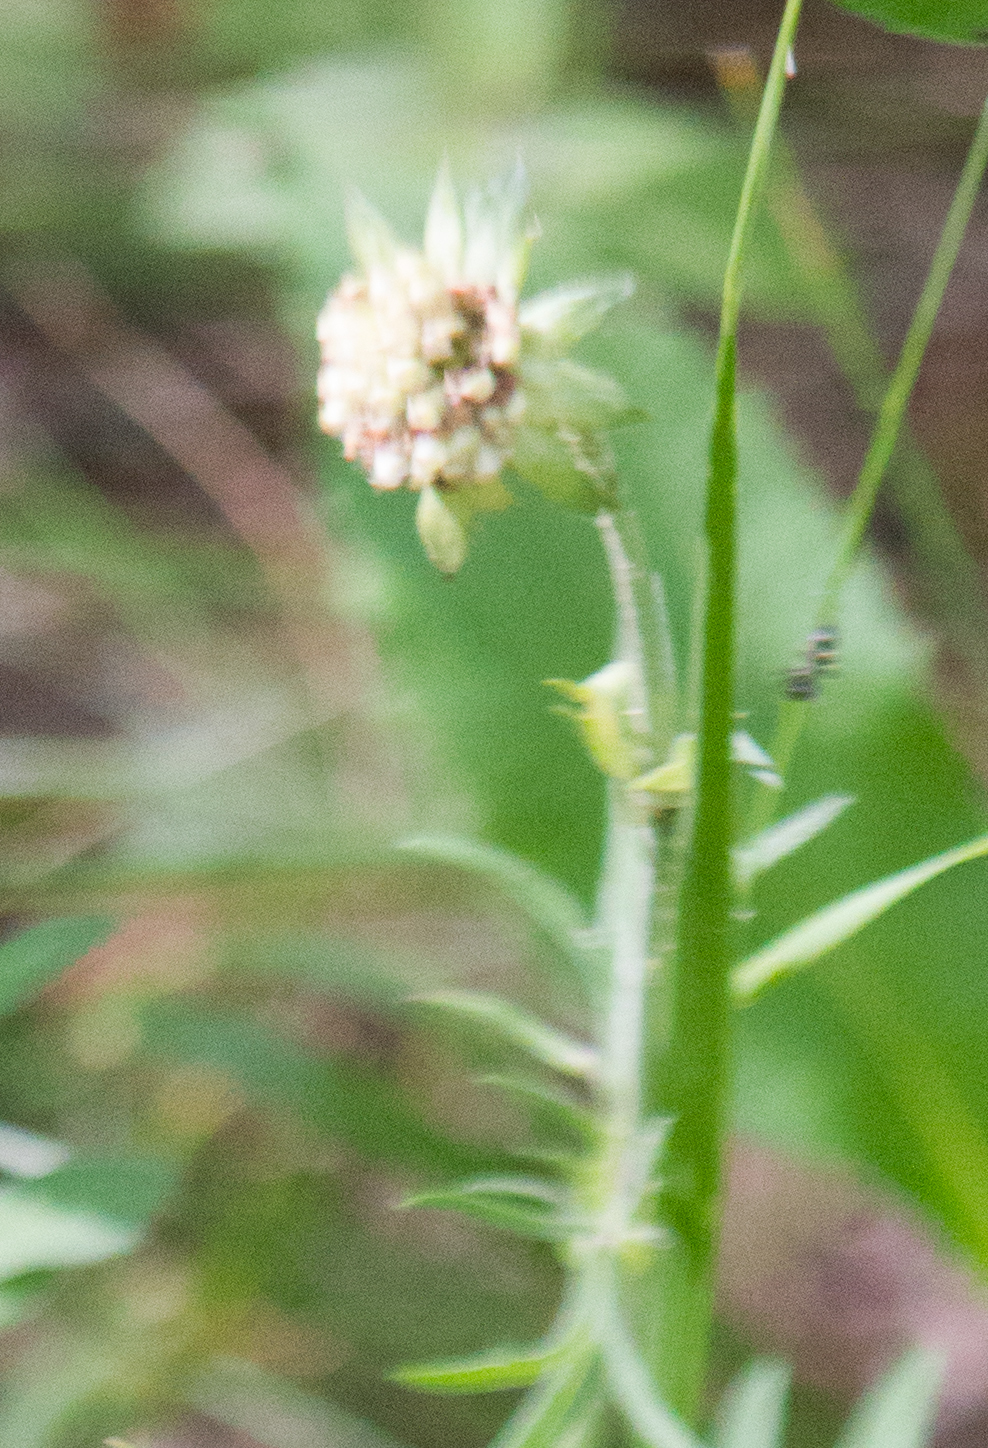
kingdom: Plantae
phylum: Tracheophyta
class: Magnoliopsida
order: Dipsacales
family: Caprifoliaceae
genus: Knautia
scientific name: Knautia arvensis
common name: Field scabiosa
